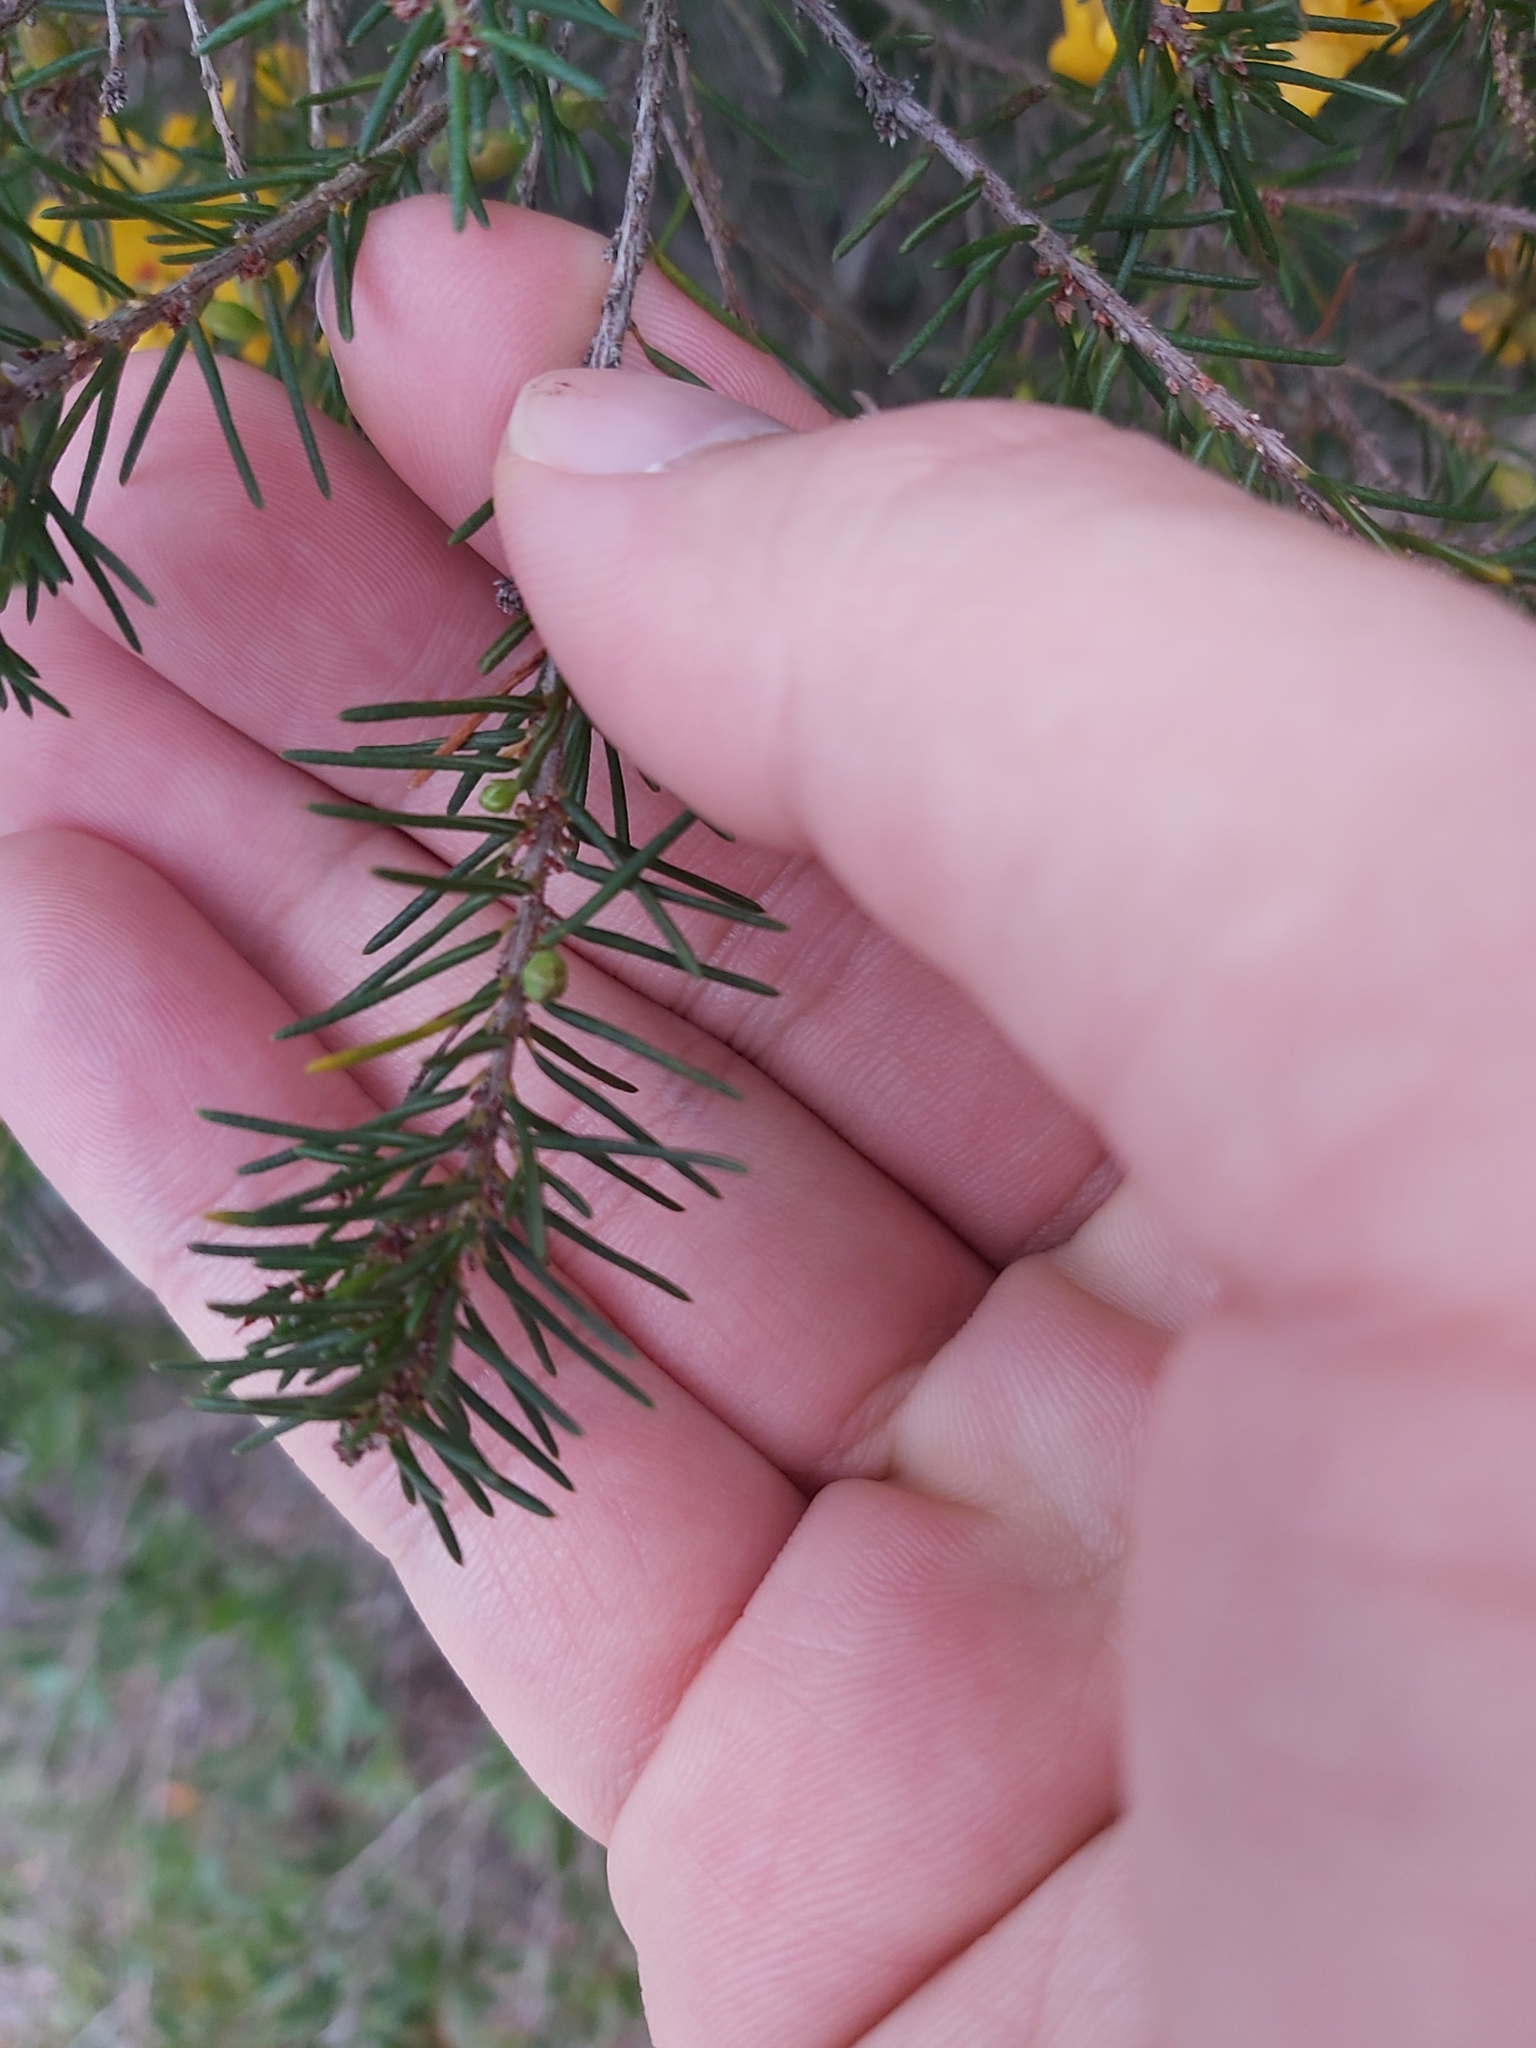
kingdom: Plantae
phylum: Tracheophyta
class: Magnoliopsida
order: Fabales
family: Fabaceae
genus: Dillwynia
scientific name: Dillwynia retorta
